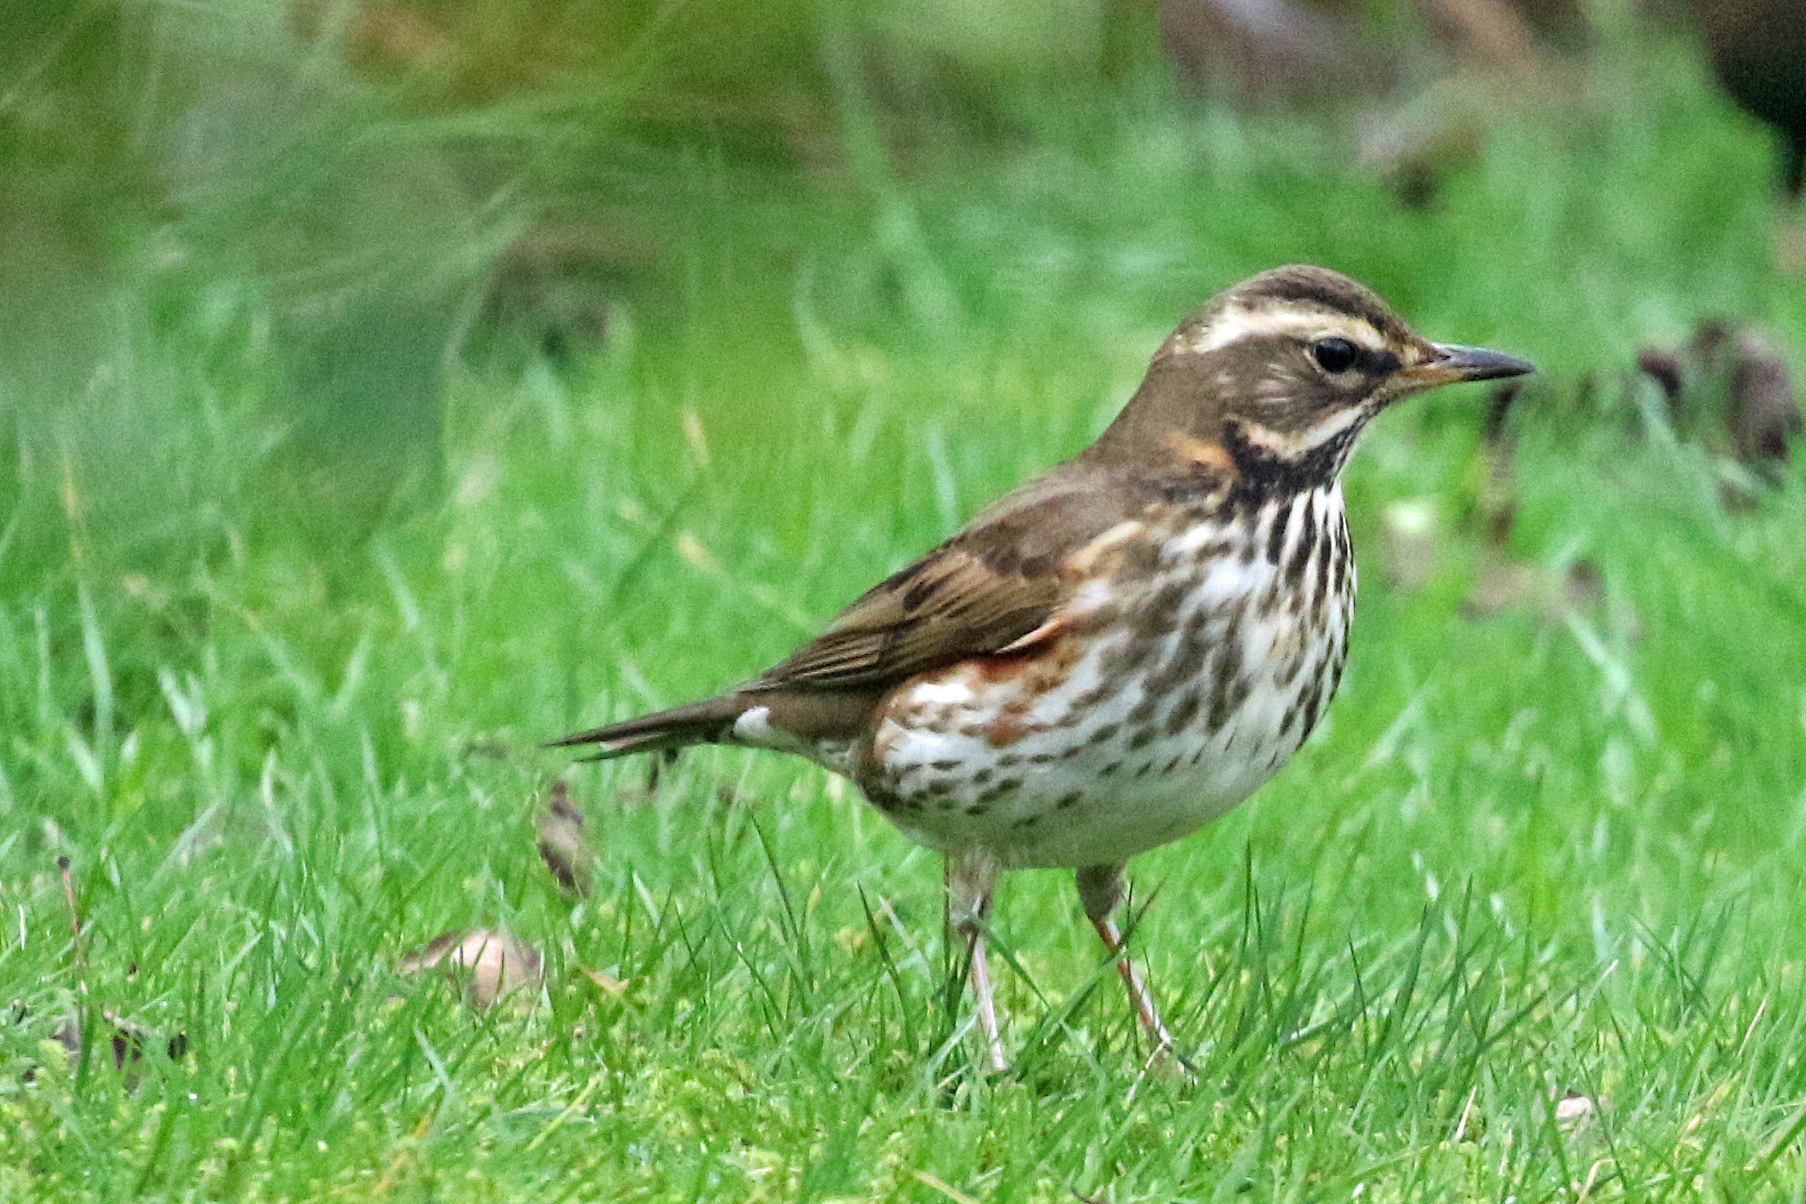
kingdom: Animalia
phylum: Chordata
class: Aves
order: Passeriformes
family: Turdidae
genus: Turdus
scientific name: Turdus iliacus
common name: Redwing
